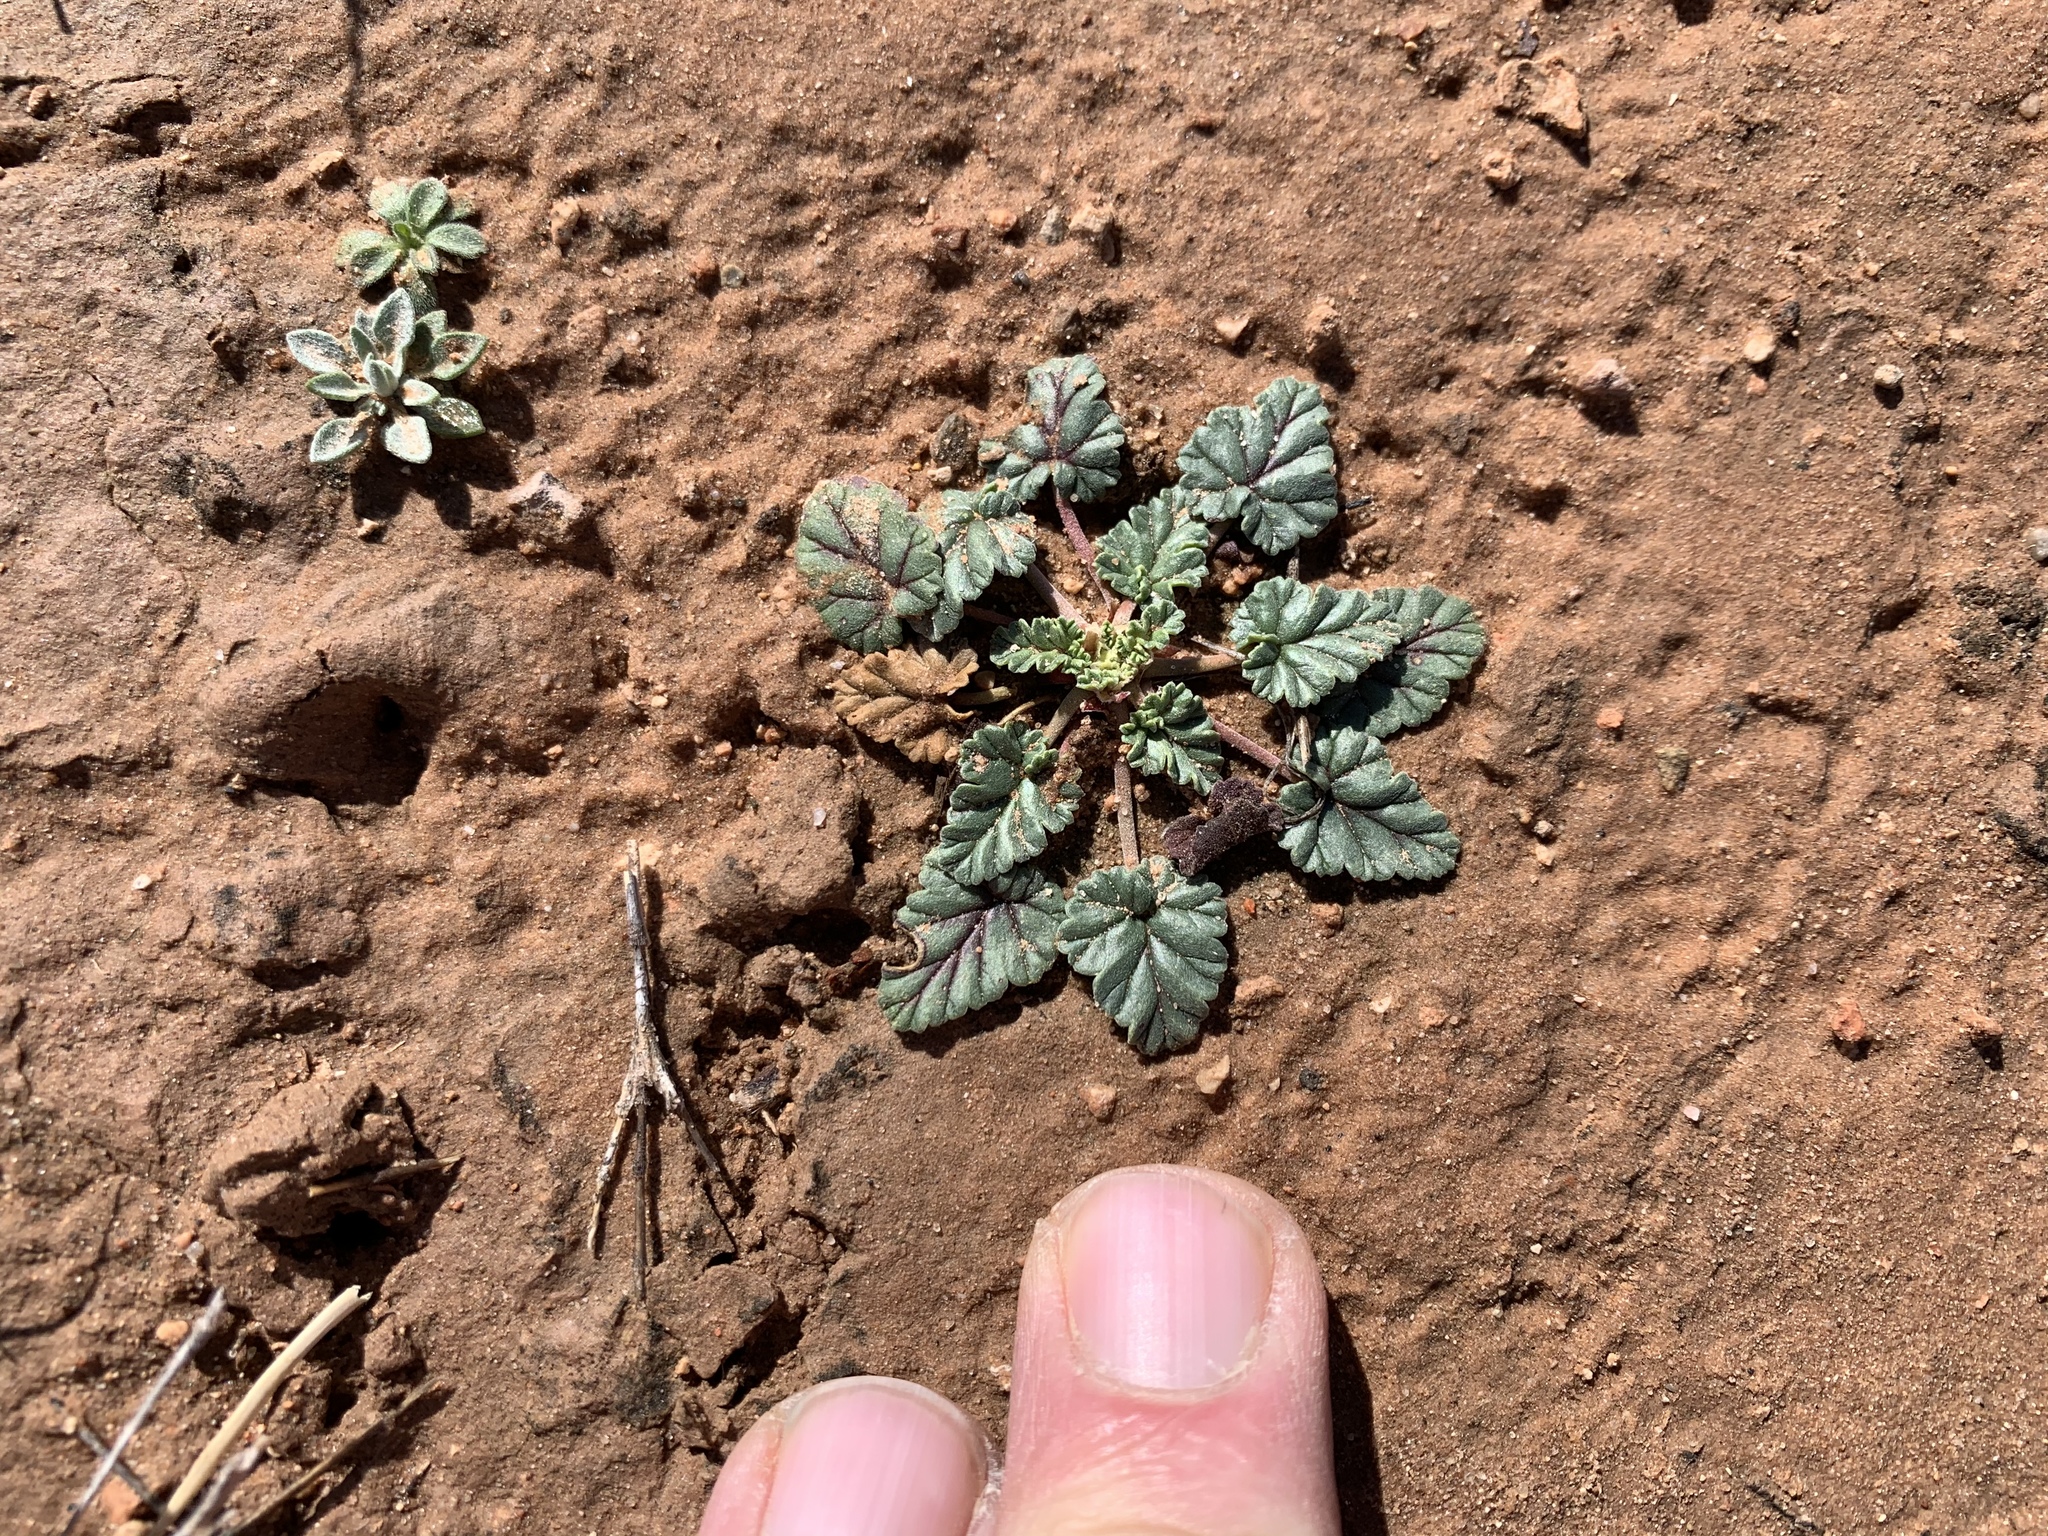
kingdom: Plantae
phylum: Tracheophyta
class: Magnoliopsida
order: Geraniales
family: Geraniaceae
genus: Erodium
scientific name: Erodium texanum
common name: Texas stork's-bill
